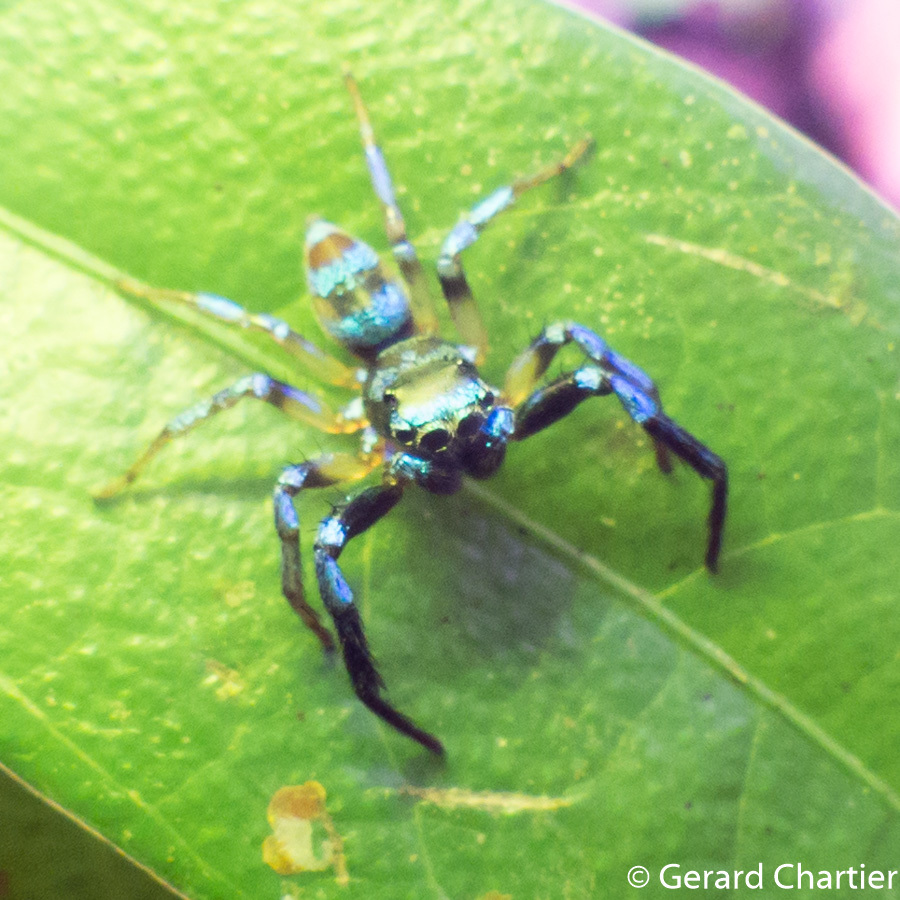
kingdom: Animalia
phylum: Arthropoda
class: Arachnida
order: Araneae
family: Salticidae
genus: Thiania
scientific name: Thiania bhamoensis
